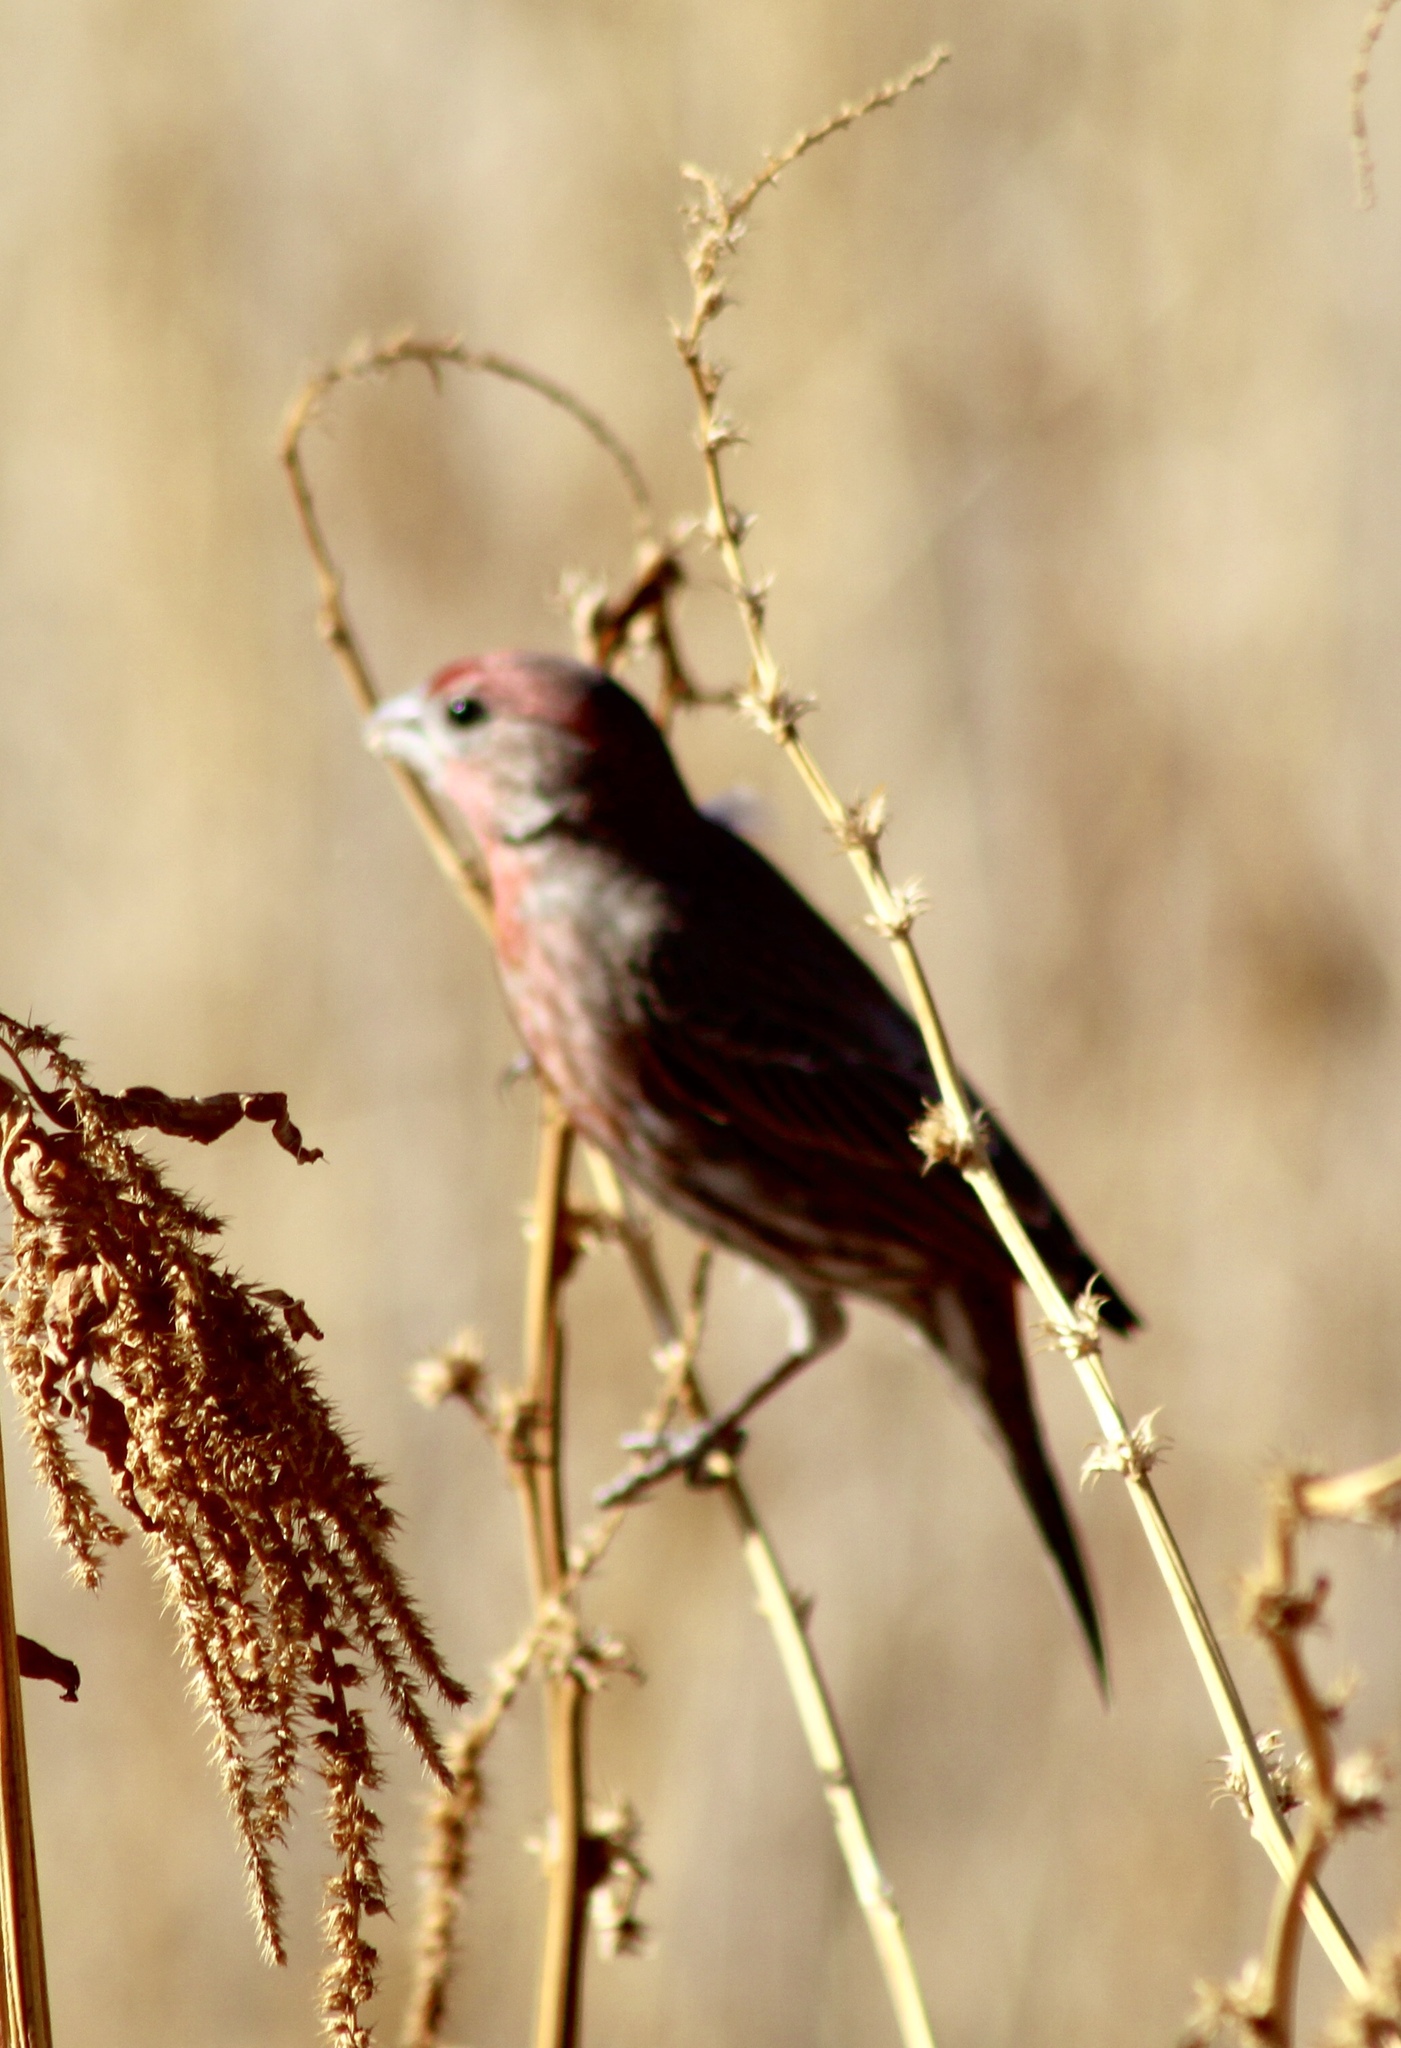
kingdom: Animalia
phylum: Chordata
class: Aves
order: Passeriformes
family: Fringillidae
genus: Haemorhous
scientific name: Haemorhous mexicanus
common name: House finch
